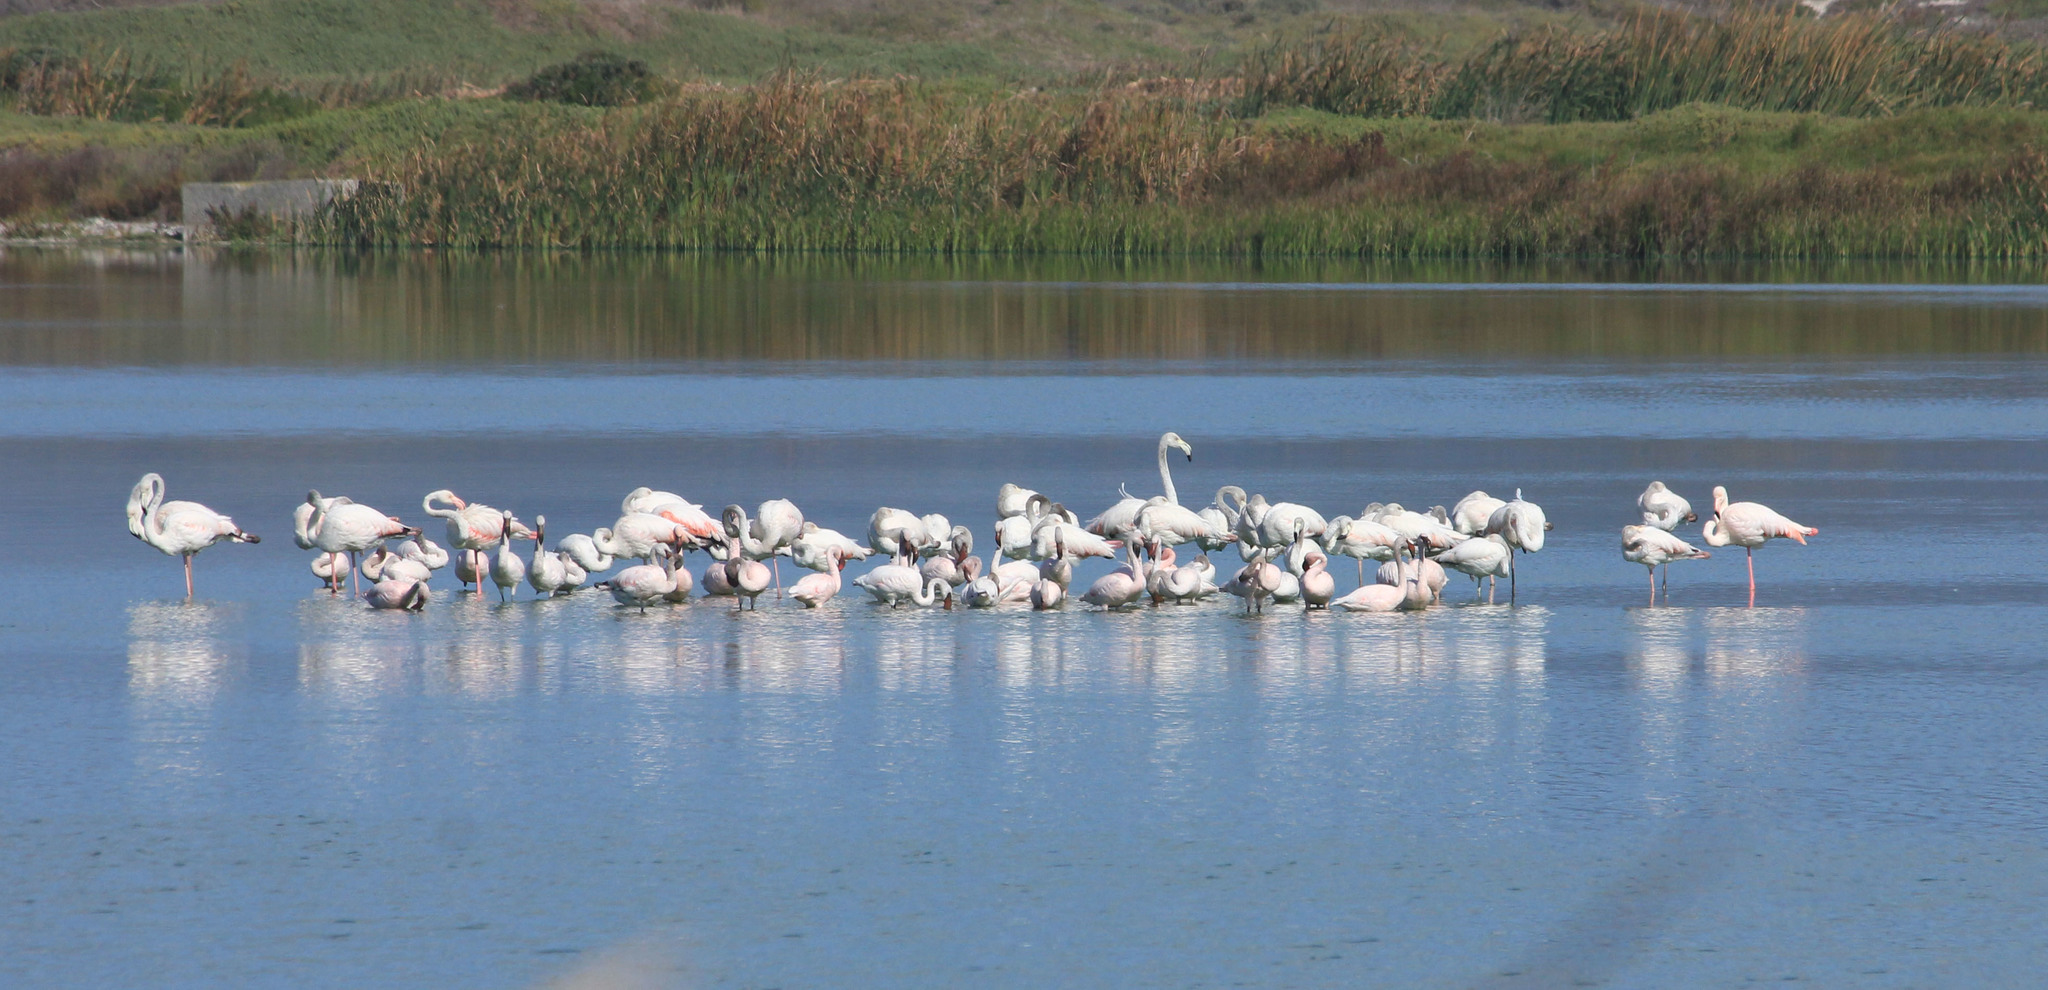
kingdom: Animalia
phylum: Chordata
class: Aves
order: Phoenicopteriformes
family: Phoenicopteridae
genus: Phoenicopterus
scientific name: Phoenicopterus roseus
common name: Greater flamingo
